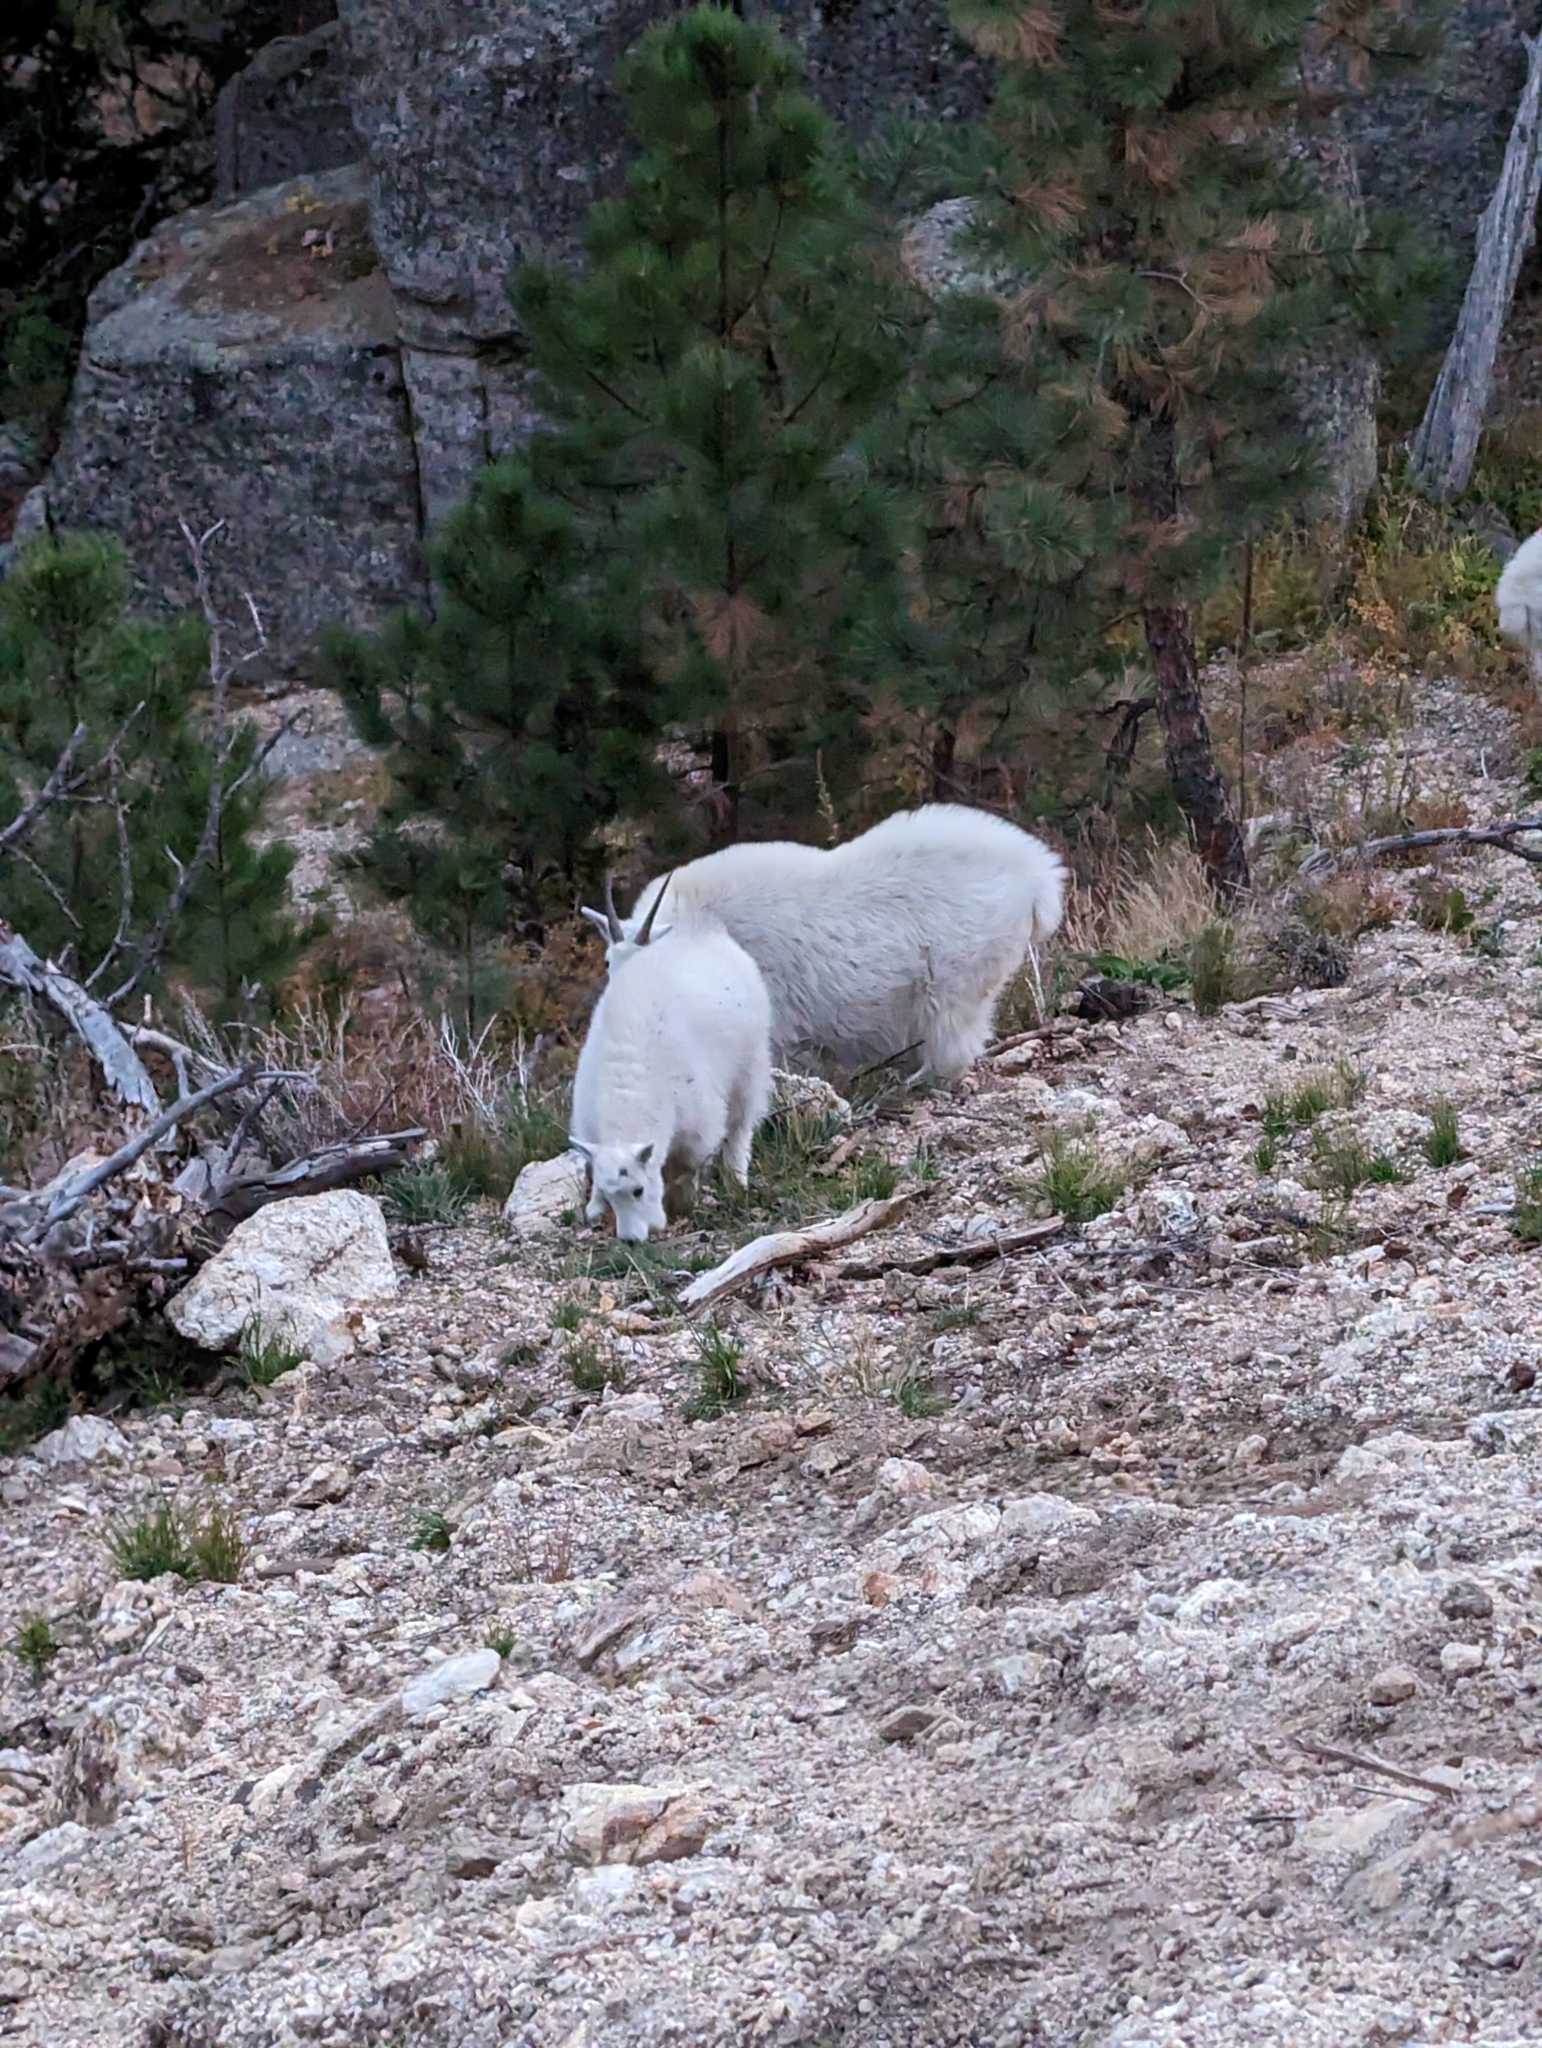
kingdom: Animalia
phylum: Chordata
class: Mammalia
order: Artiodactyla
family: Bovidae
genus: Oreamnos
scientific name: Oreamnos americanus
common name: Mountain goat
